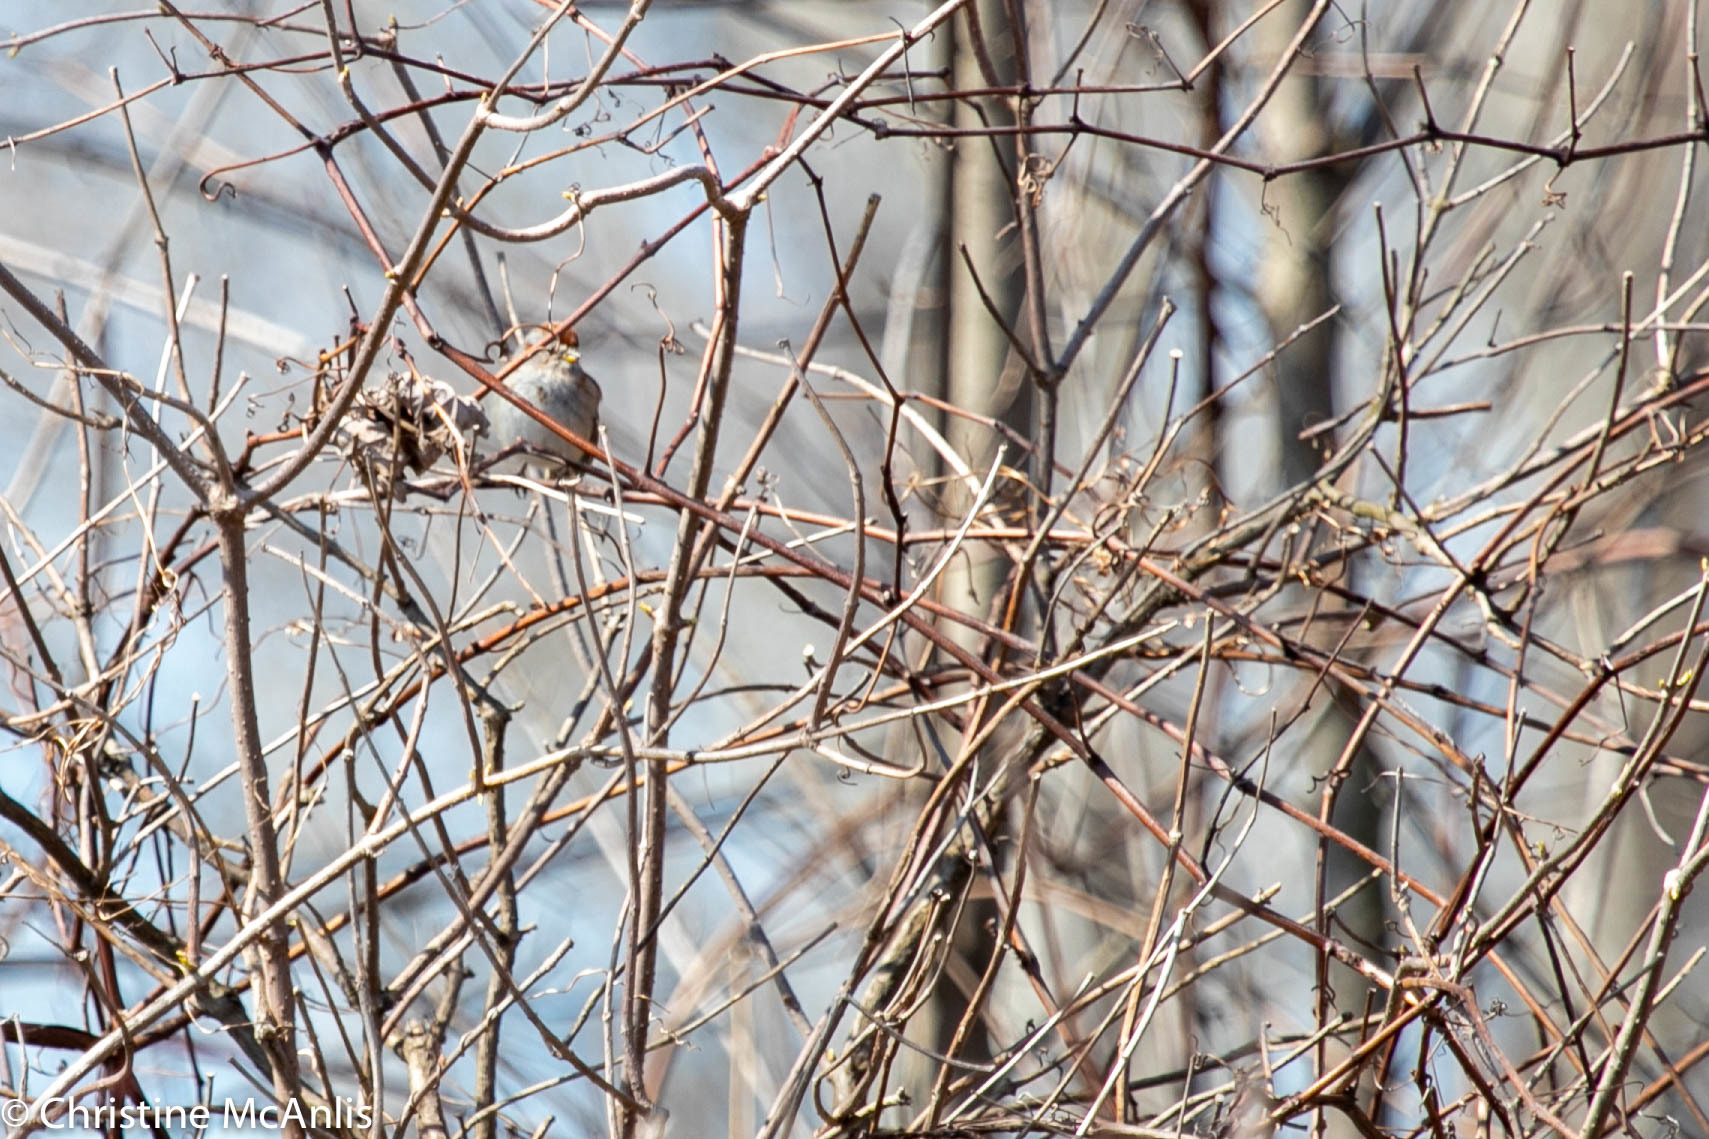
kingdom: Animalia
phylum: Chordata
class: Aves
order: Passeriformes
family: Passerellidae
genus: Spizelloides
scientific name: Spizelloides arborea
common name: American tree sparrow
